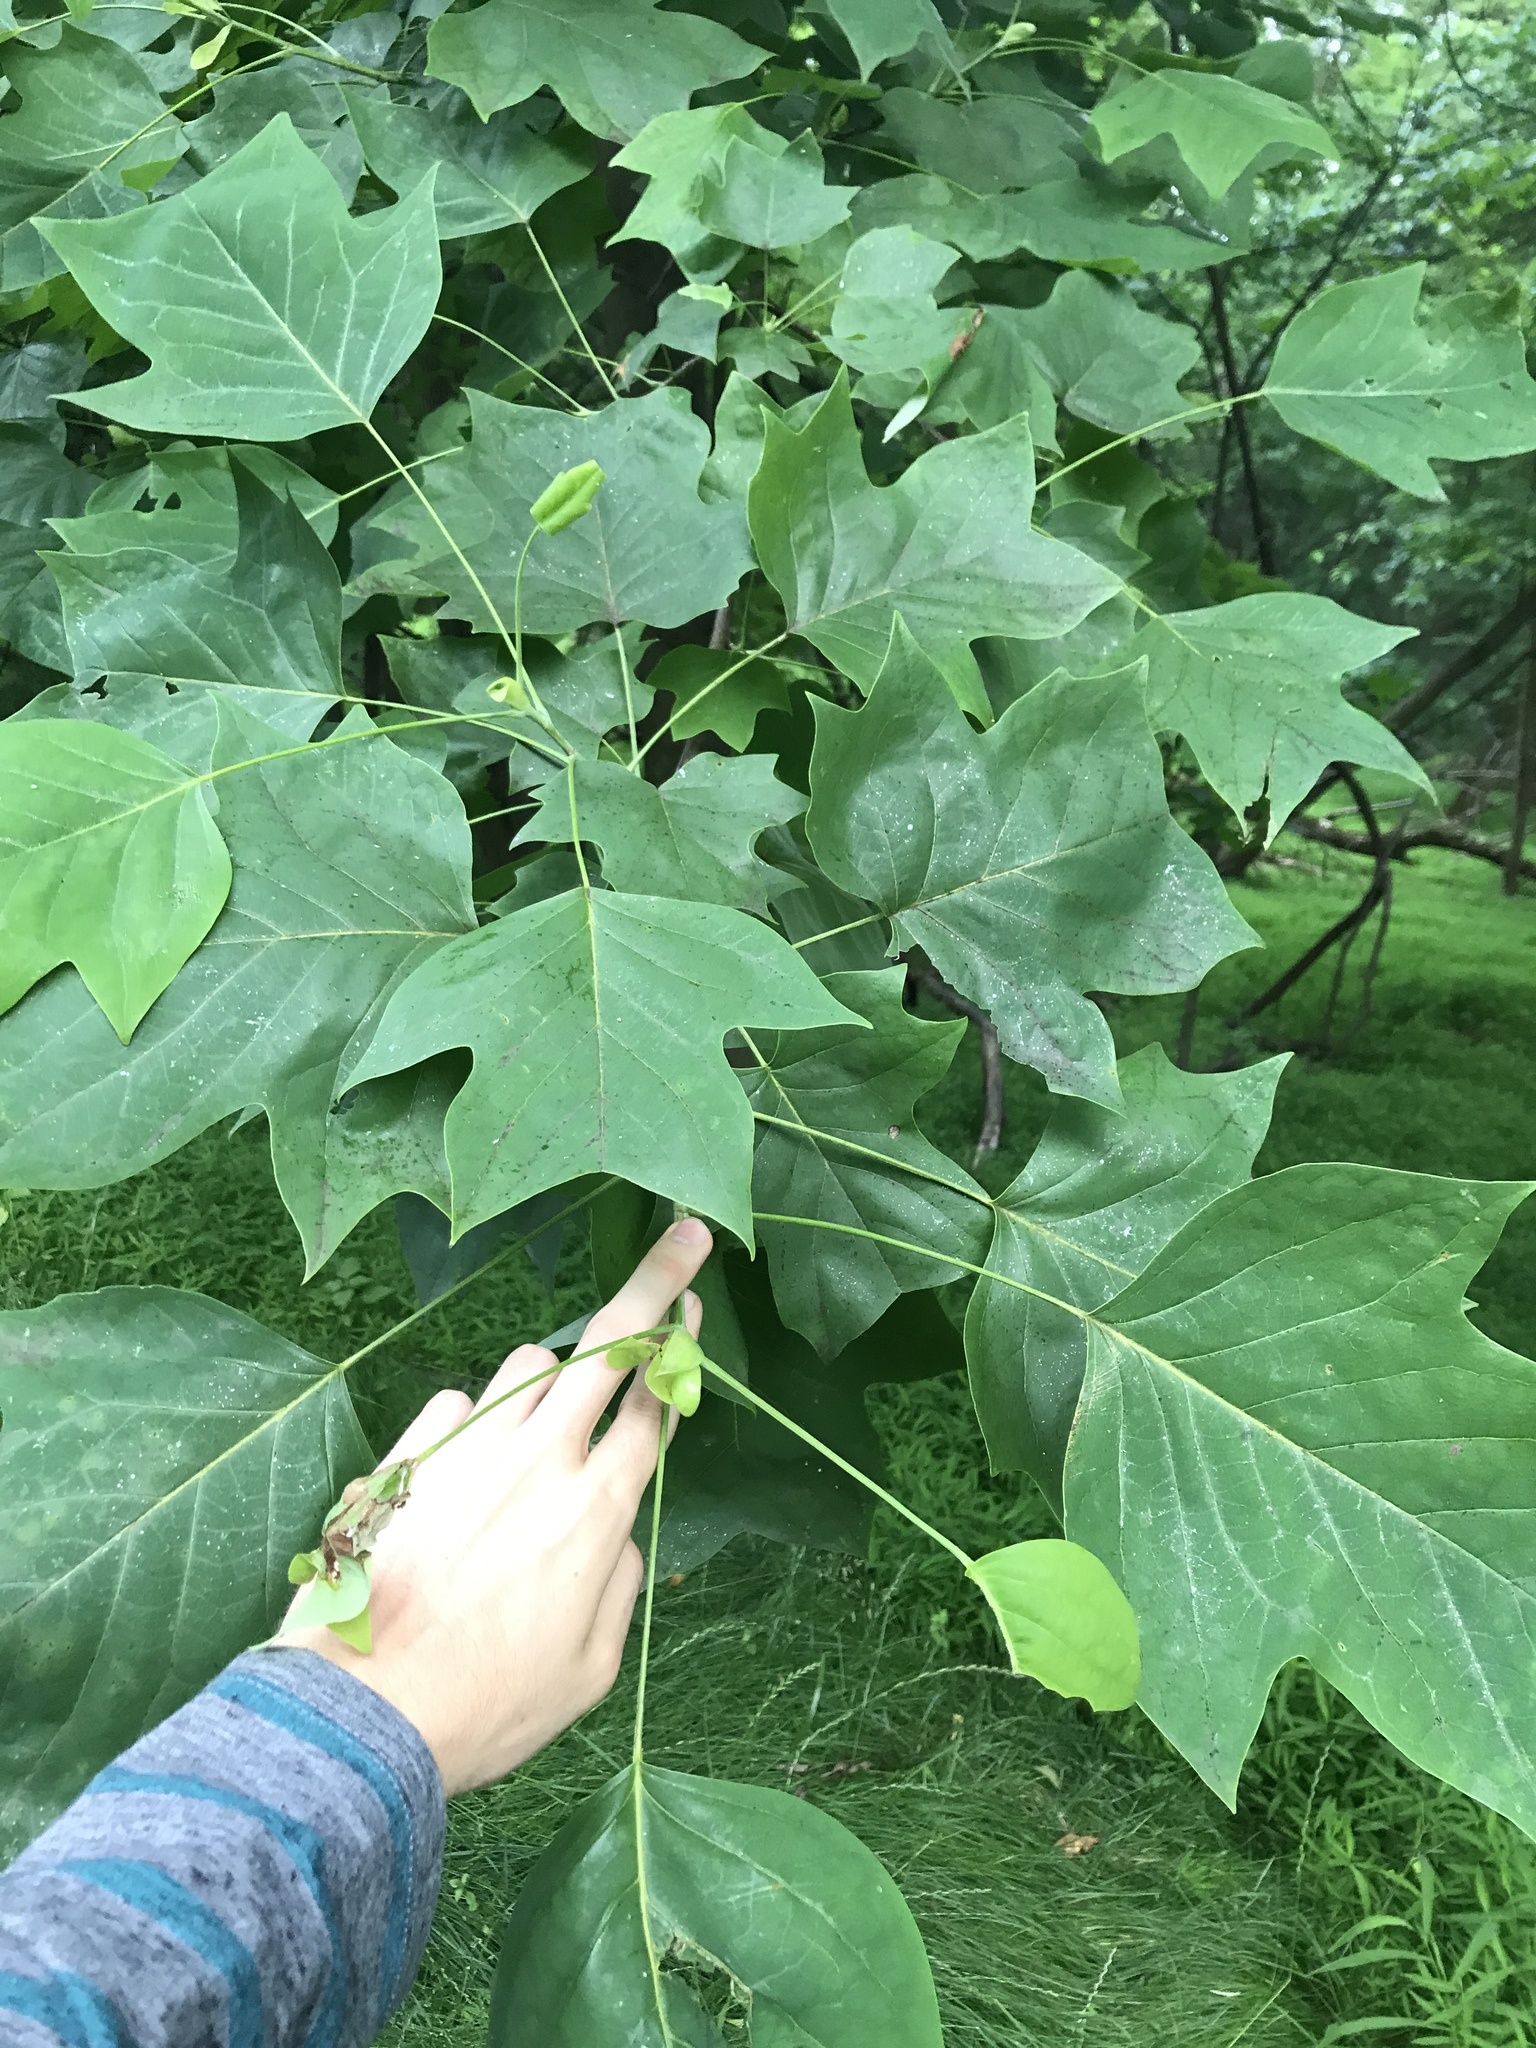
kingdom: Plantae
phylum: Tracheophyta
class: Magnoliopsida
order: Magnoliales
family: Magnoliaceae
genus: Liriodendron
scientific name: Liriodendron tulipifera
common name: Tulip tree
